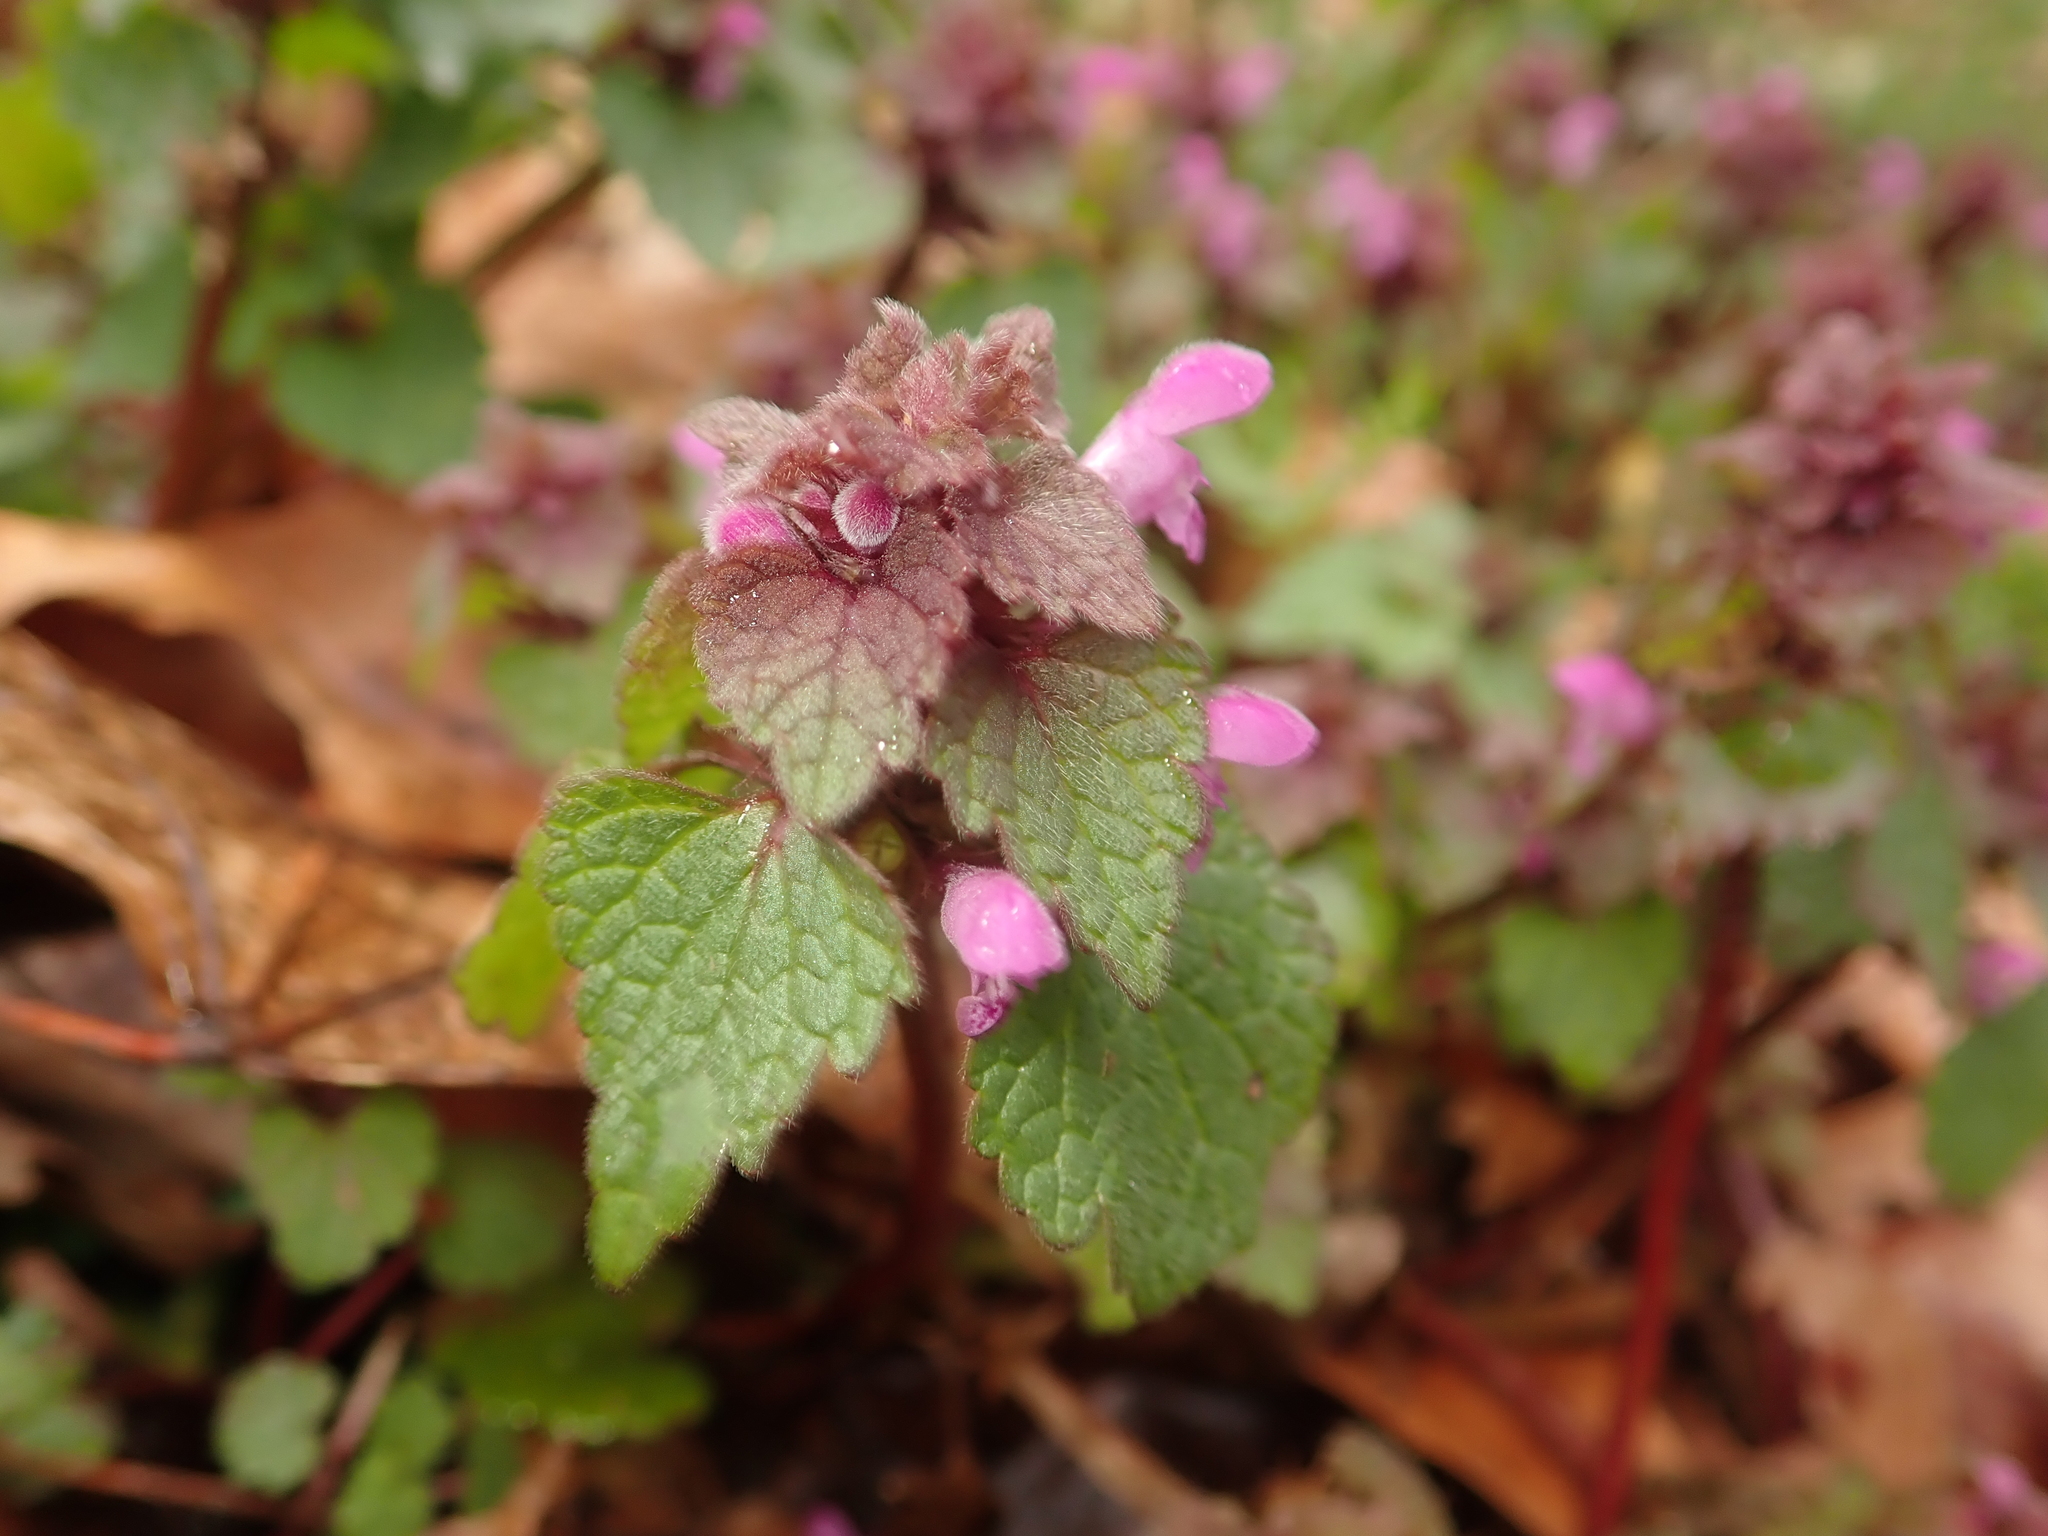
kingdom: Plantae
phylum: Tracheophyta
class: Magnoliopsida
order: Lamiales
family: Lamiaceae
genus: Lamium
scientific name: Lamium purpureum
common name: Red dead-nettle
